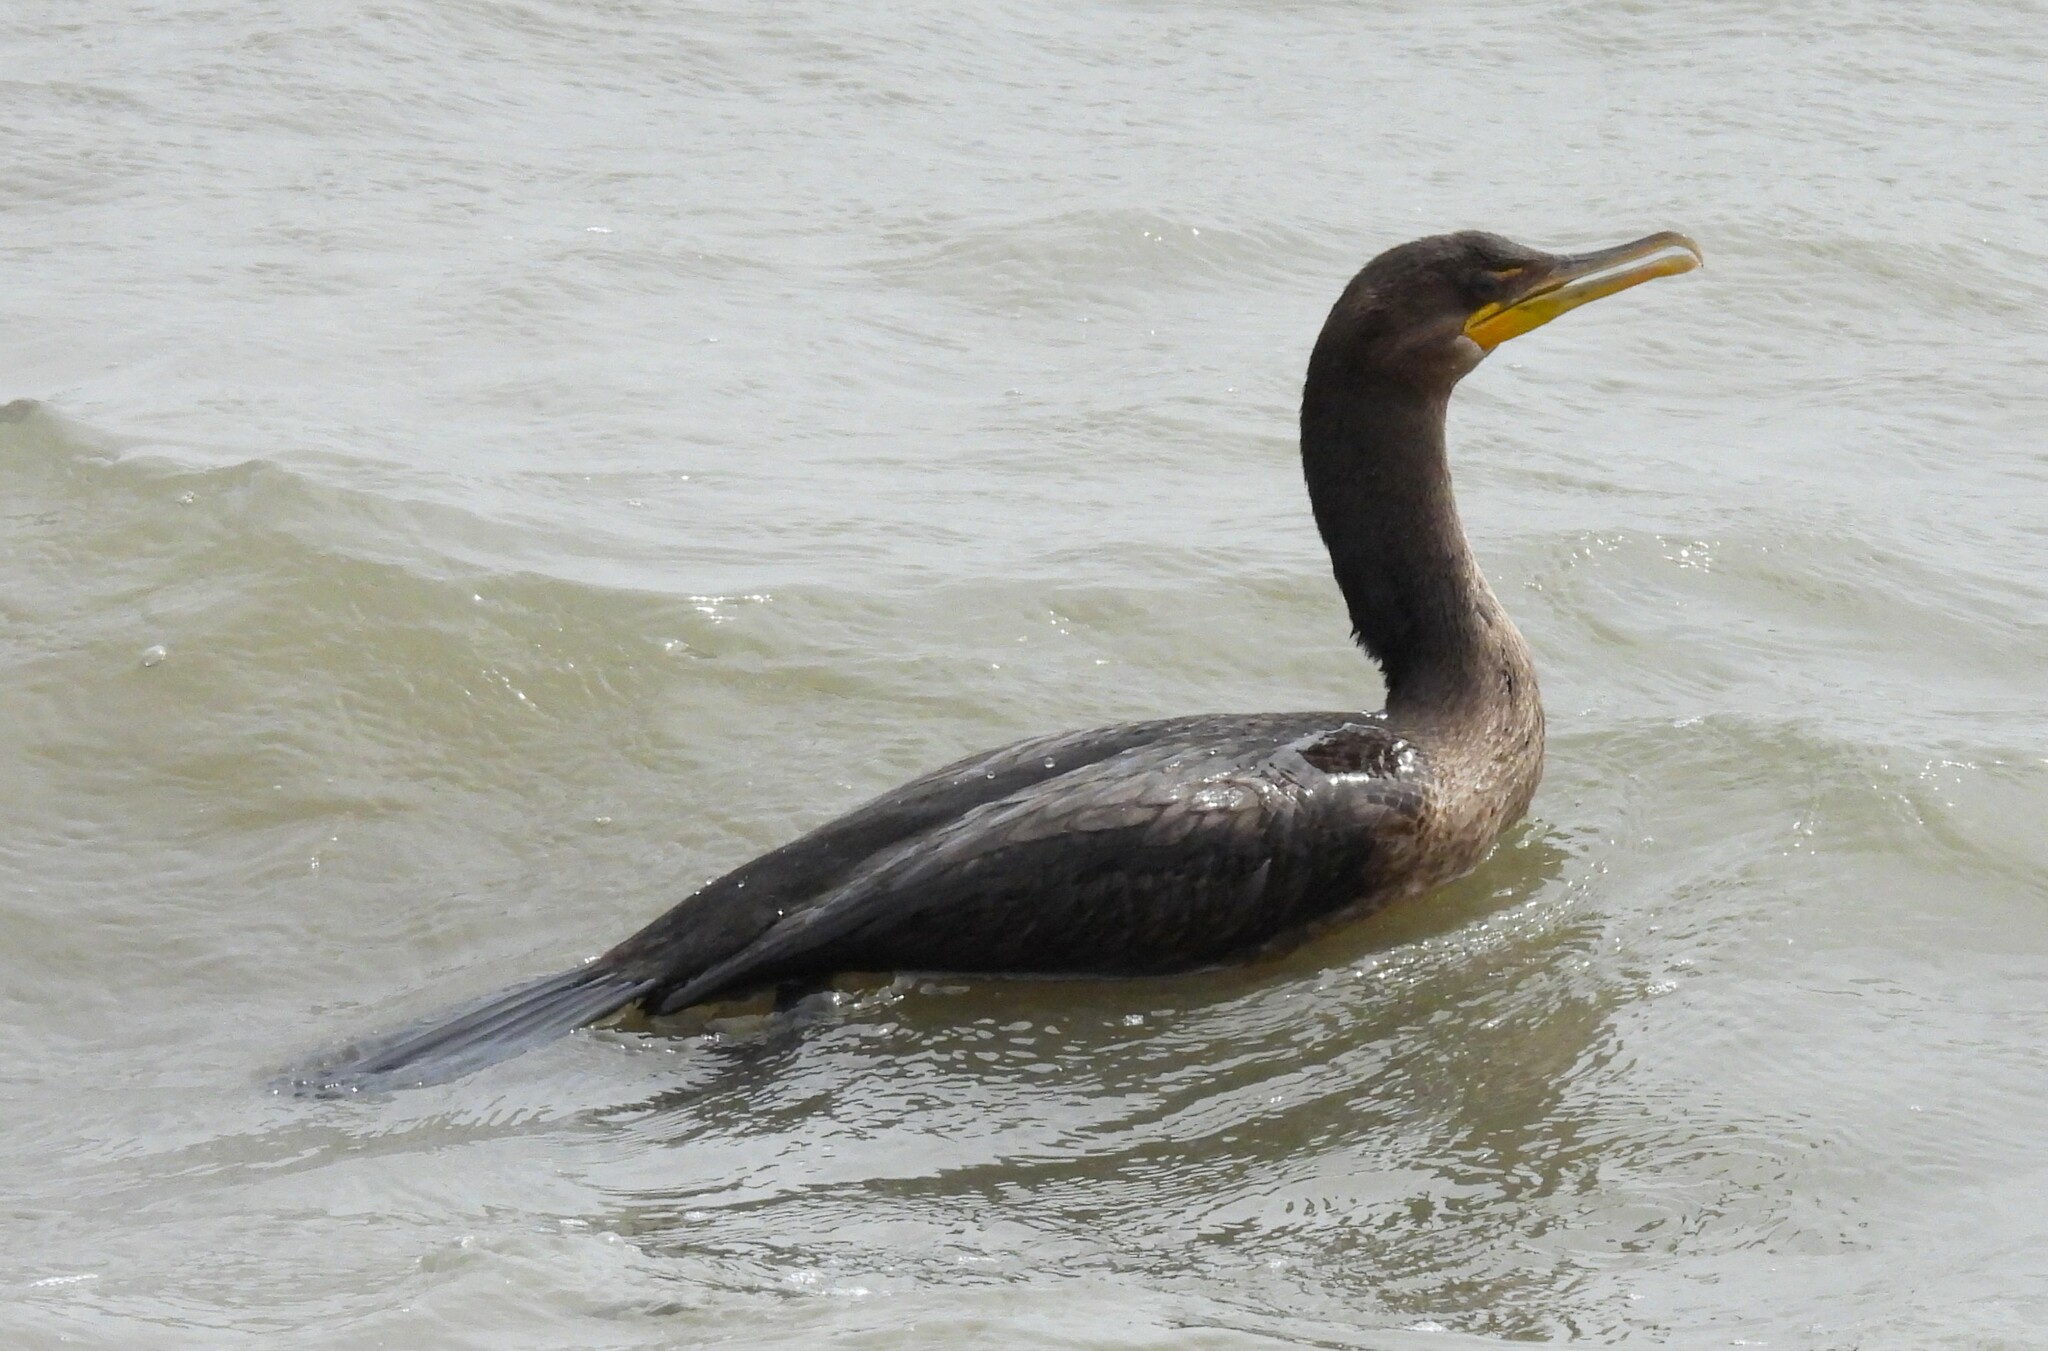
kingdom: Animalia
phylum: Chordata
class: Aves
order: Suliformes
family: Phalacrocoracidae
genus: Phalacrocorax
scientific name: Phalacrocorax auritus
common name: Double-crested cormorant
